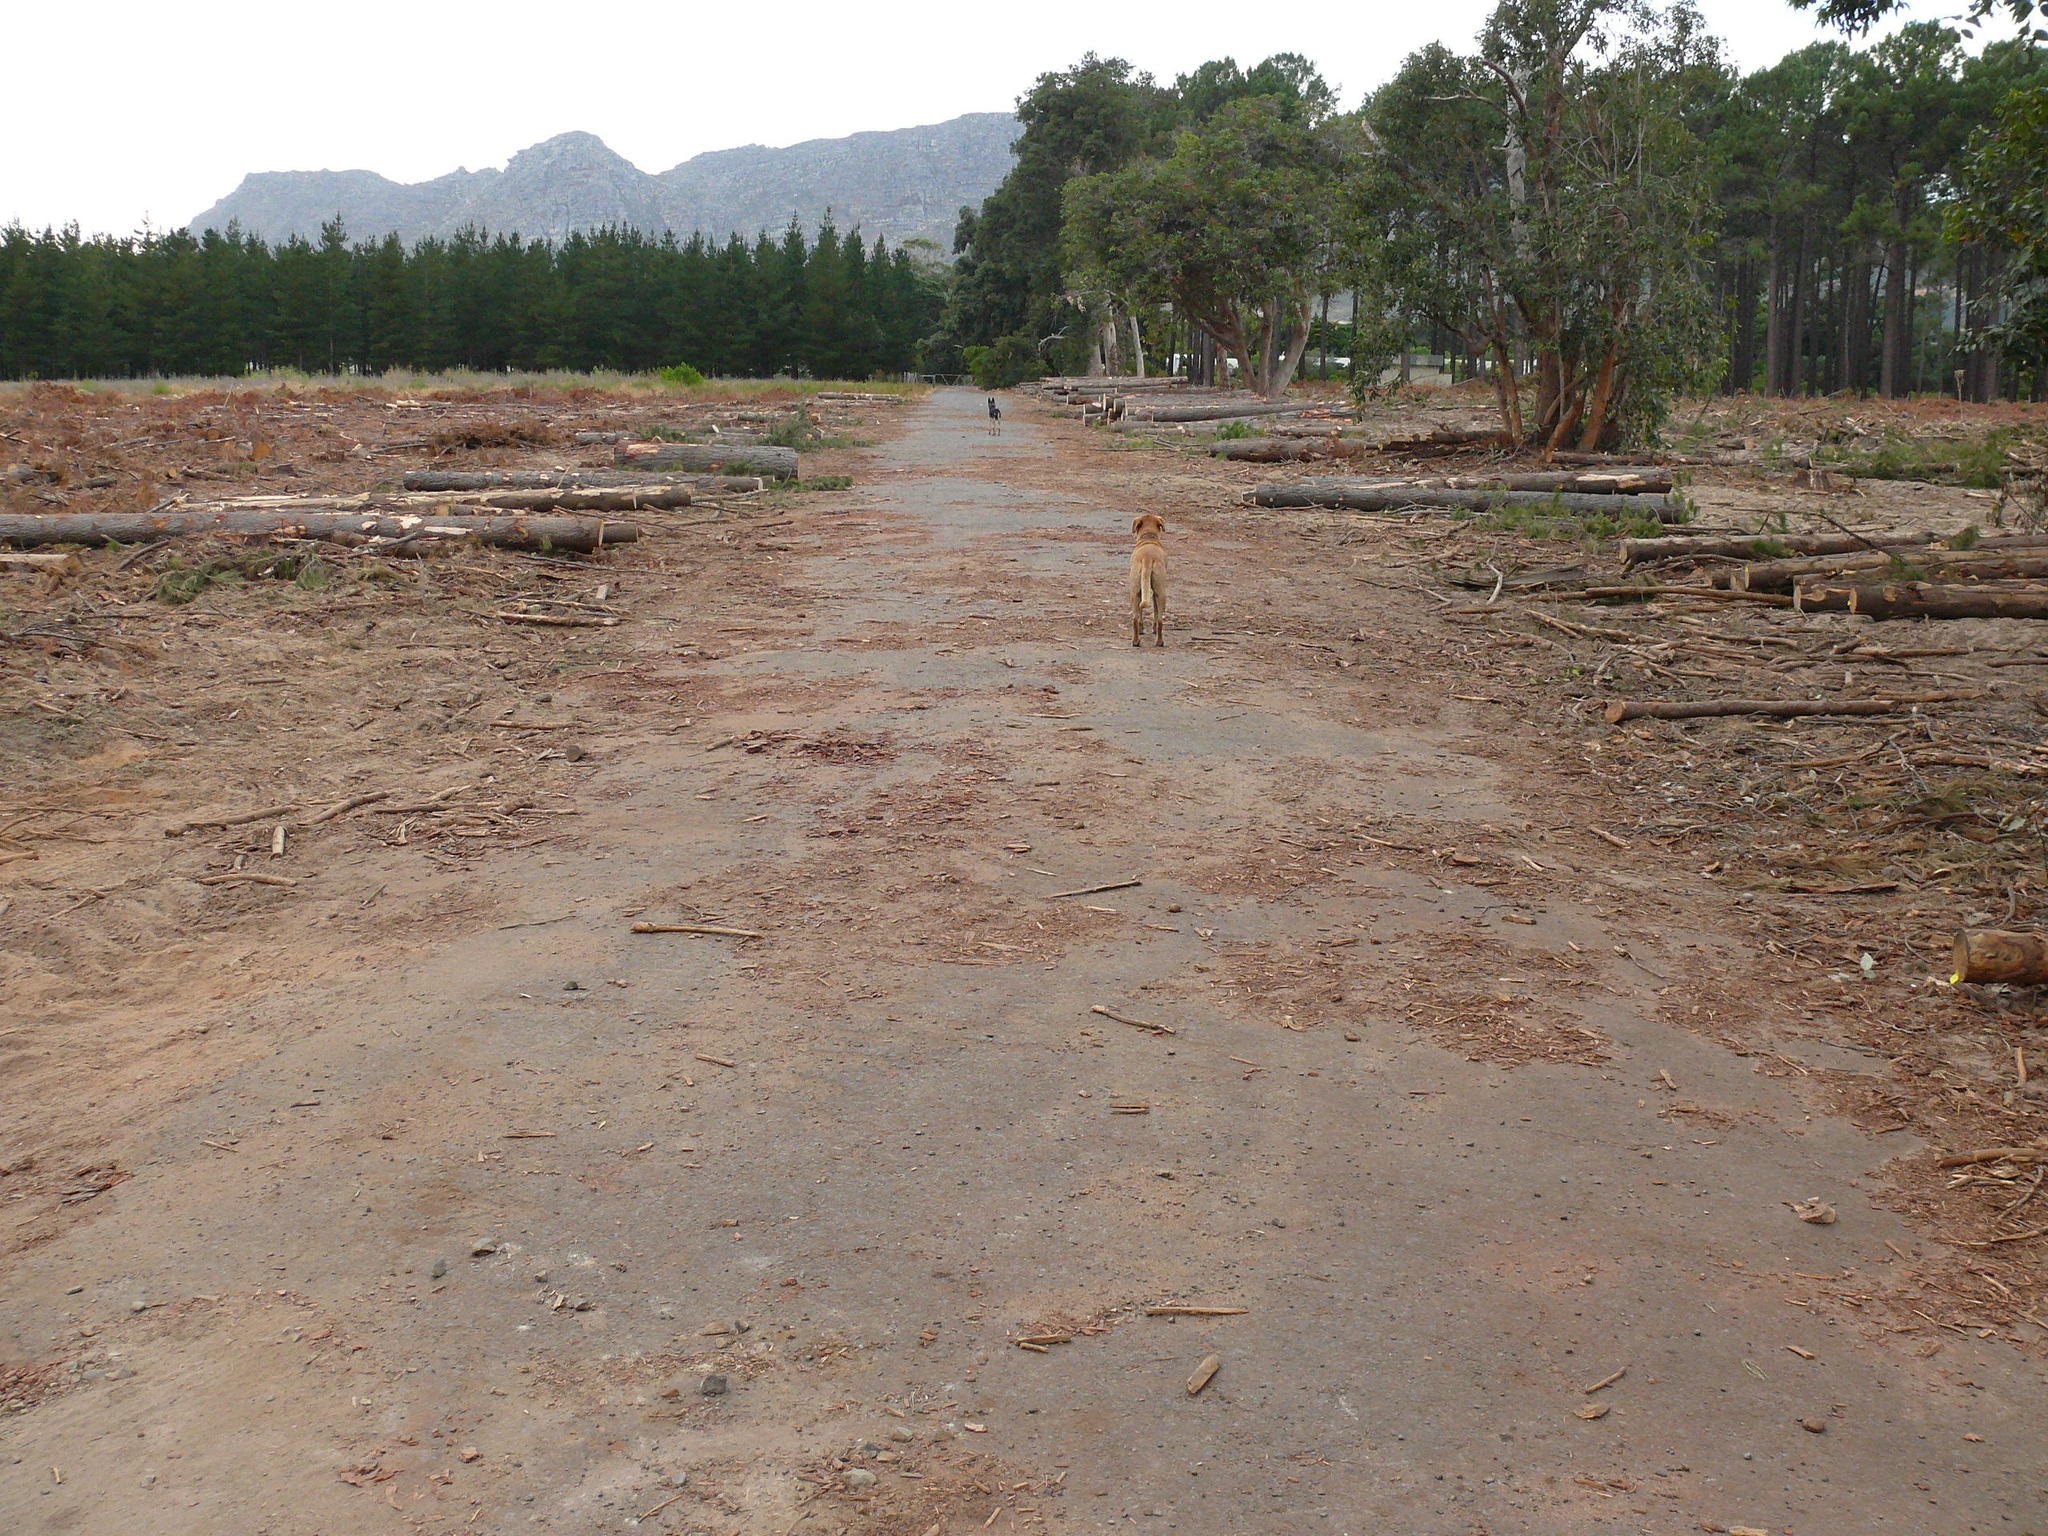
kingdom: Plantae
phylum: Tracheophyta
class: Magnoliopsida
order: Myrtales
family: Myrtaceae
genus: Corymbia
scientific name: Corymbia ficifolia
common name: Redflower gum
